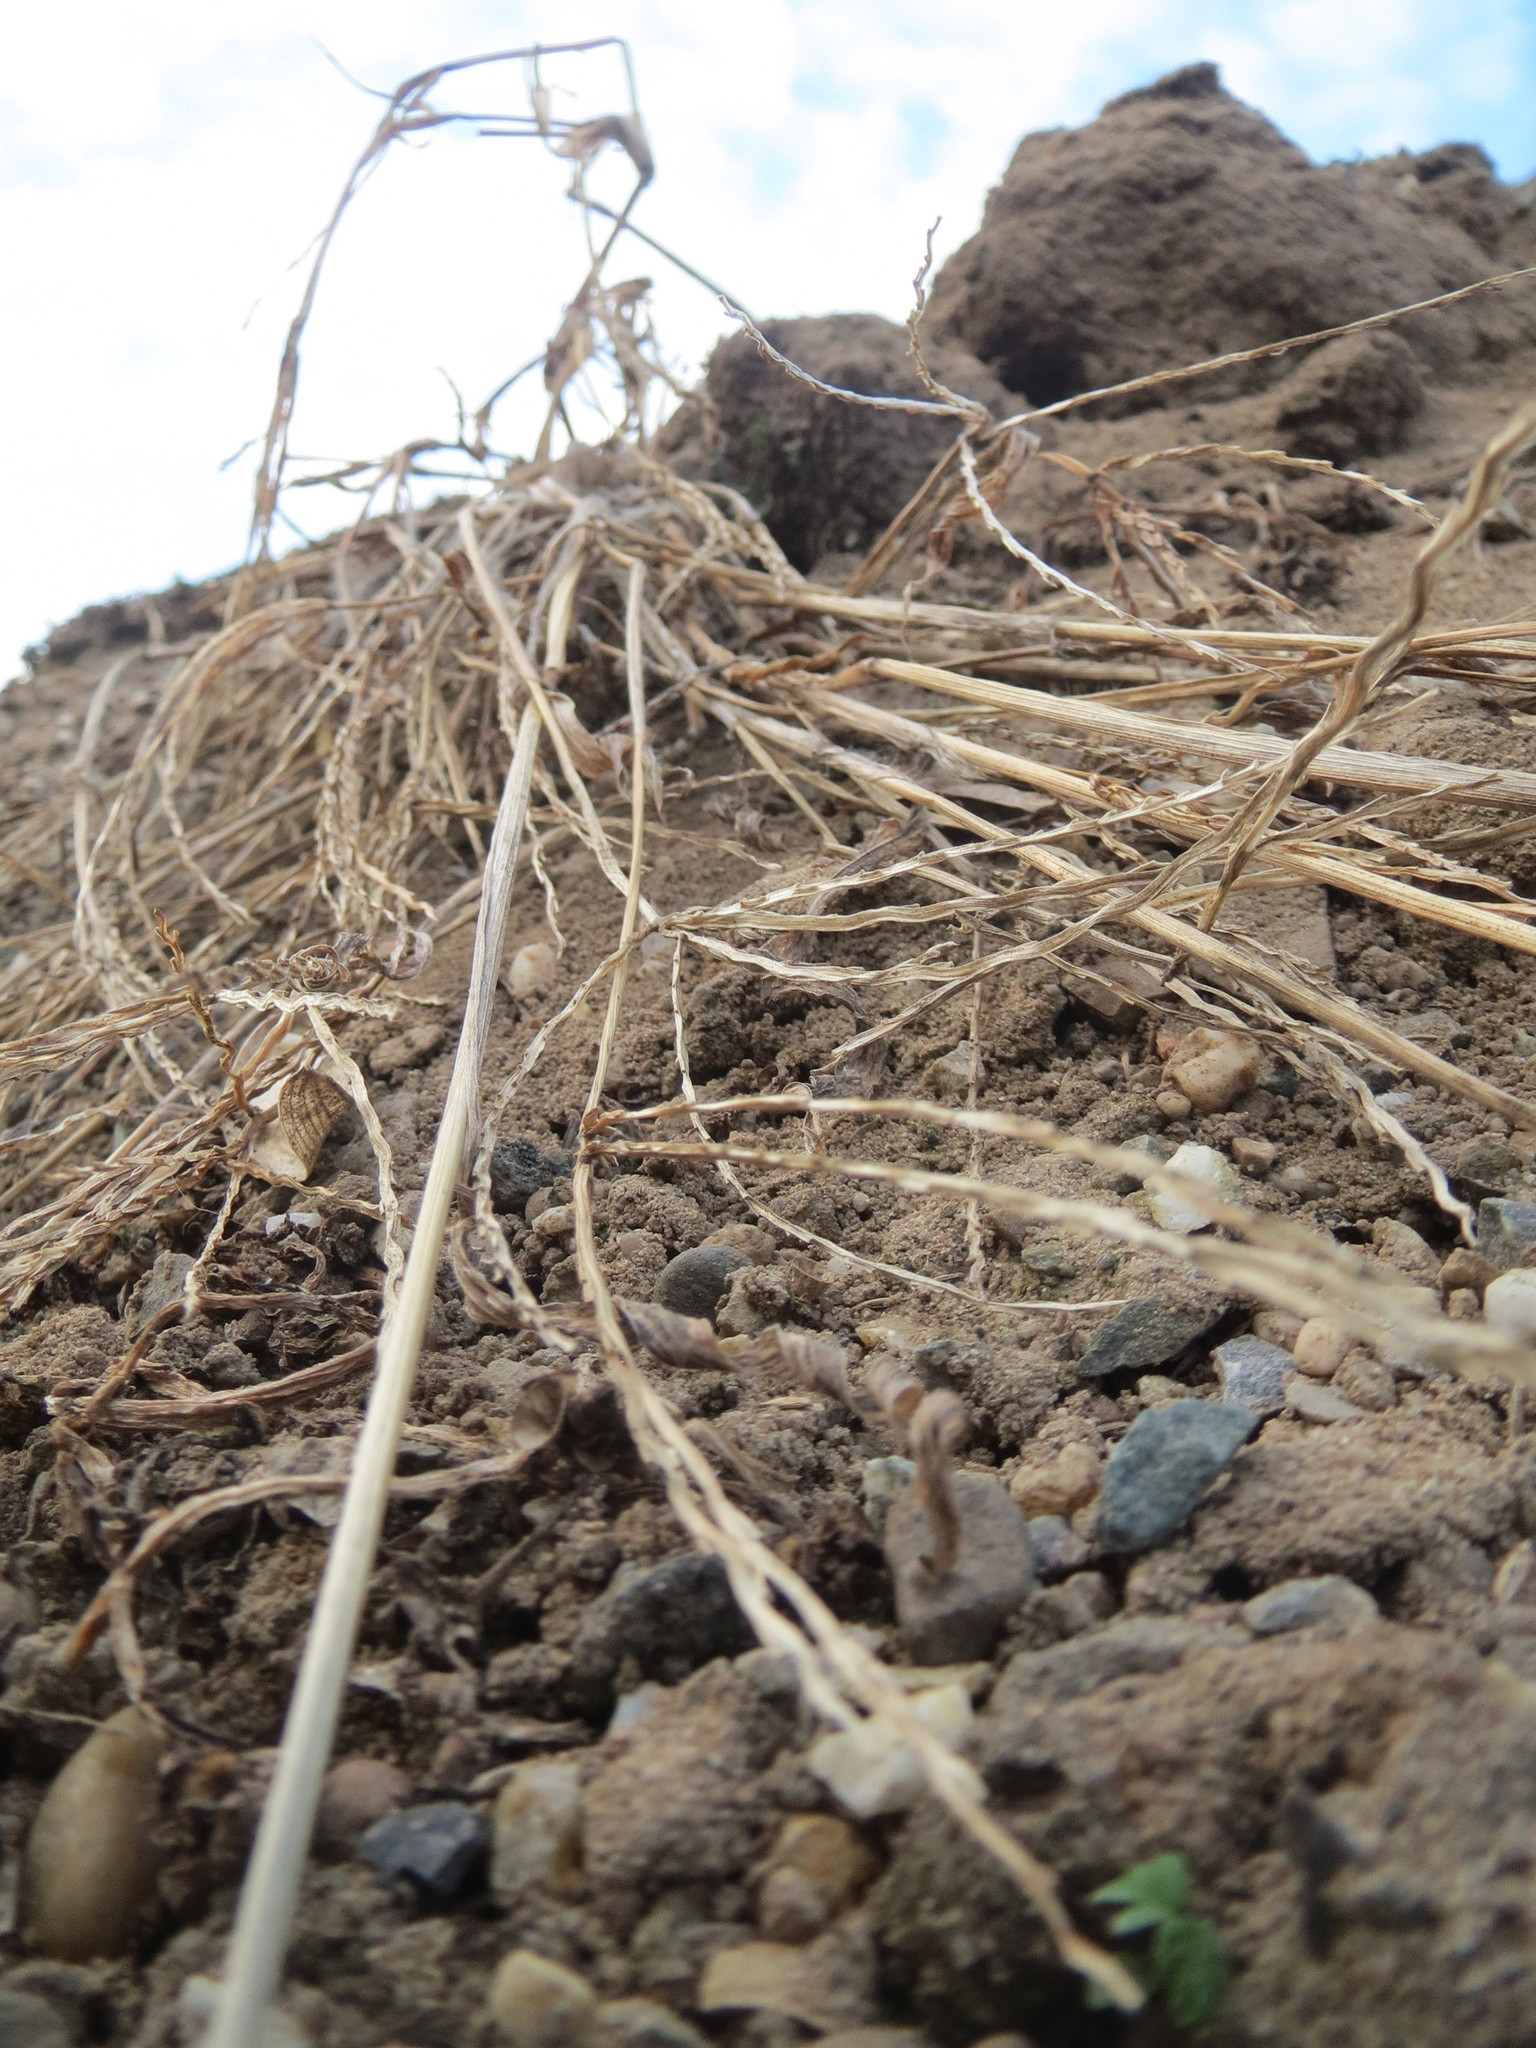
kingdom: Plantae
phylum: Tracheophyta
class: Liliopsida
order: Poales
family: Poaceae
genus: Digitaria
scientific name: Digitaria sanguinalis
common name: Hairy crabgrass
